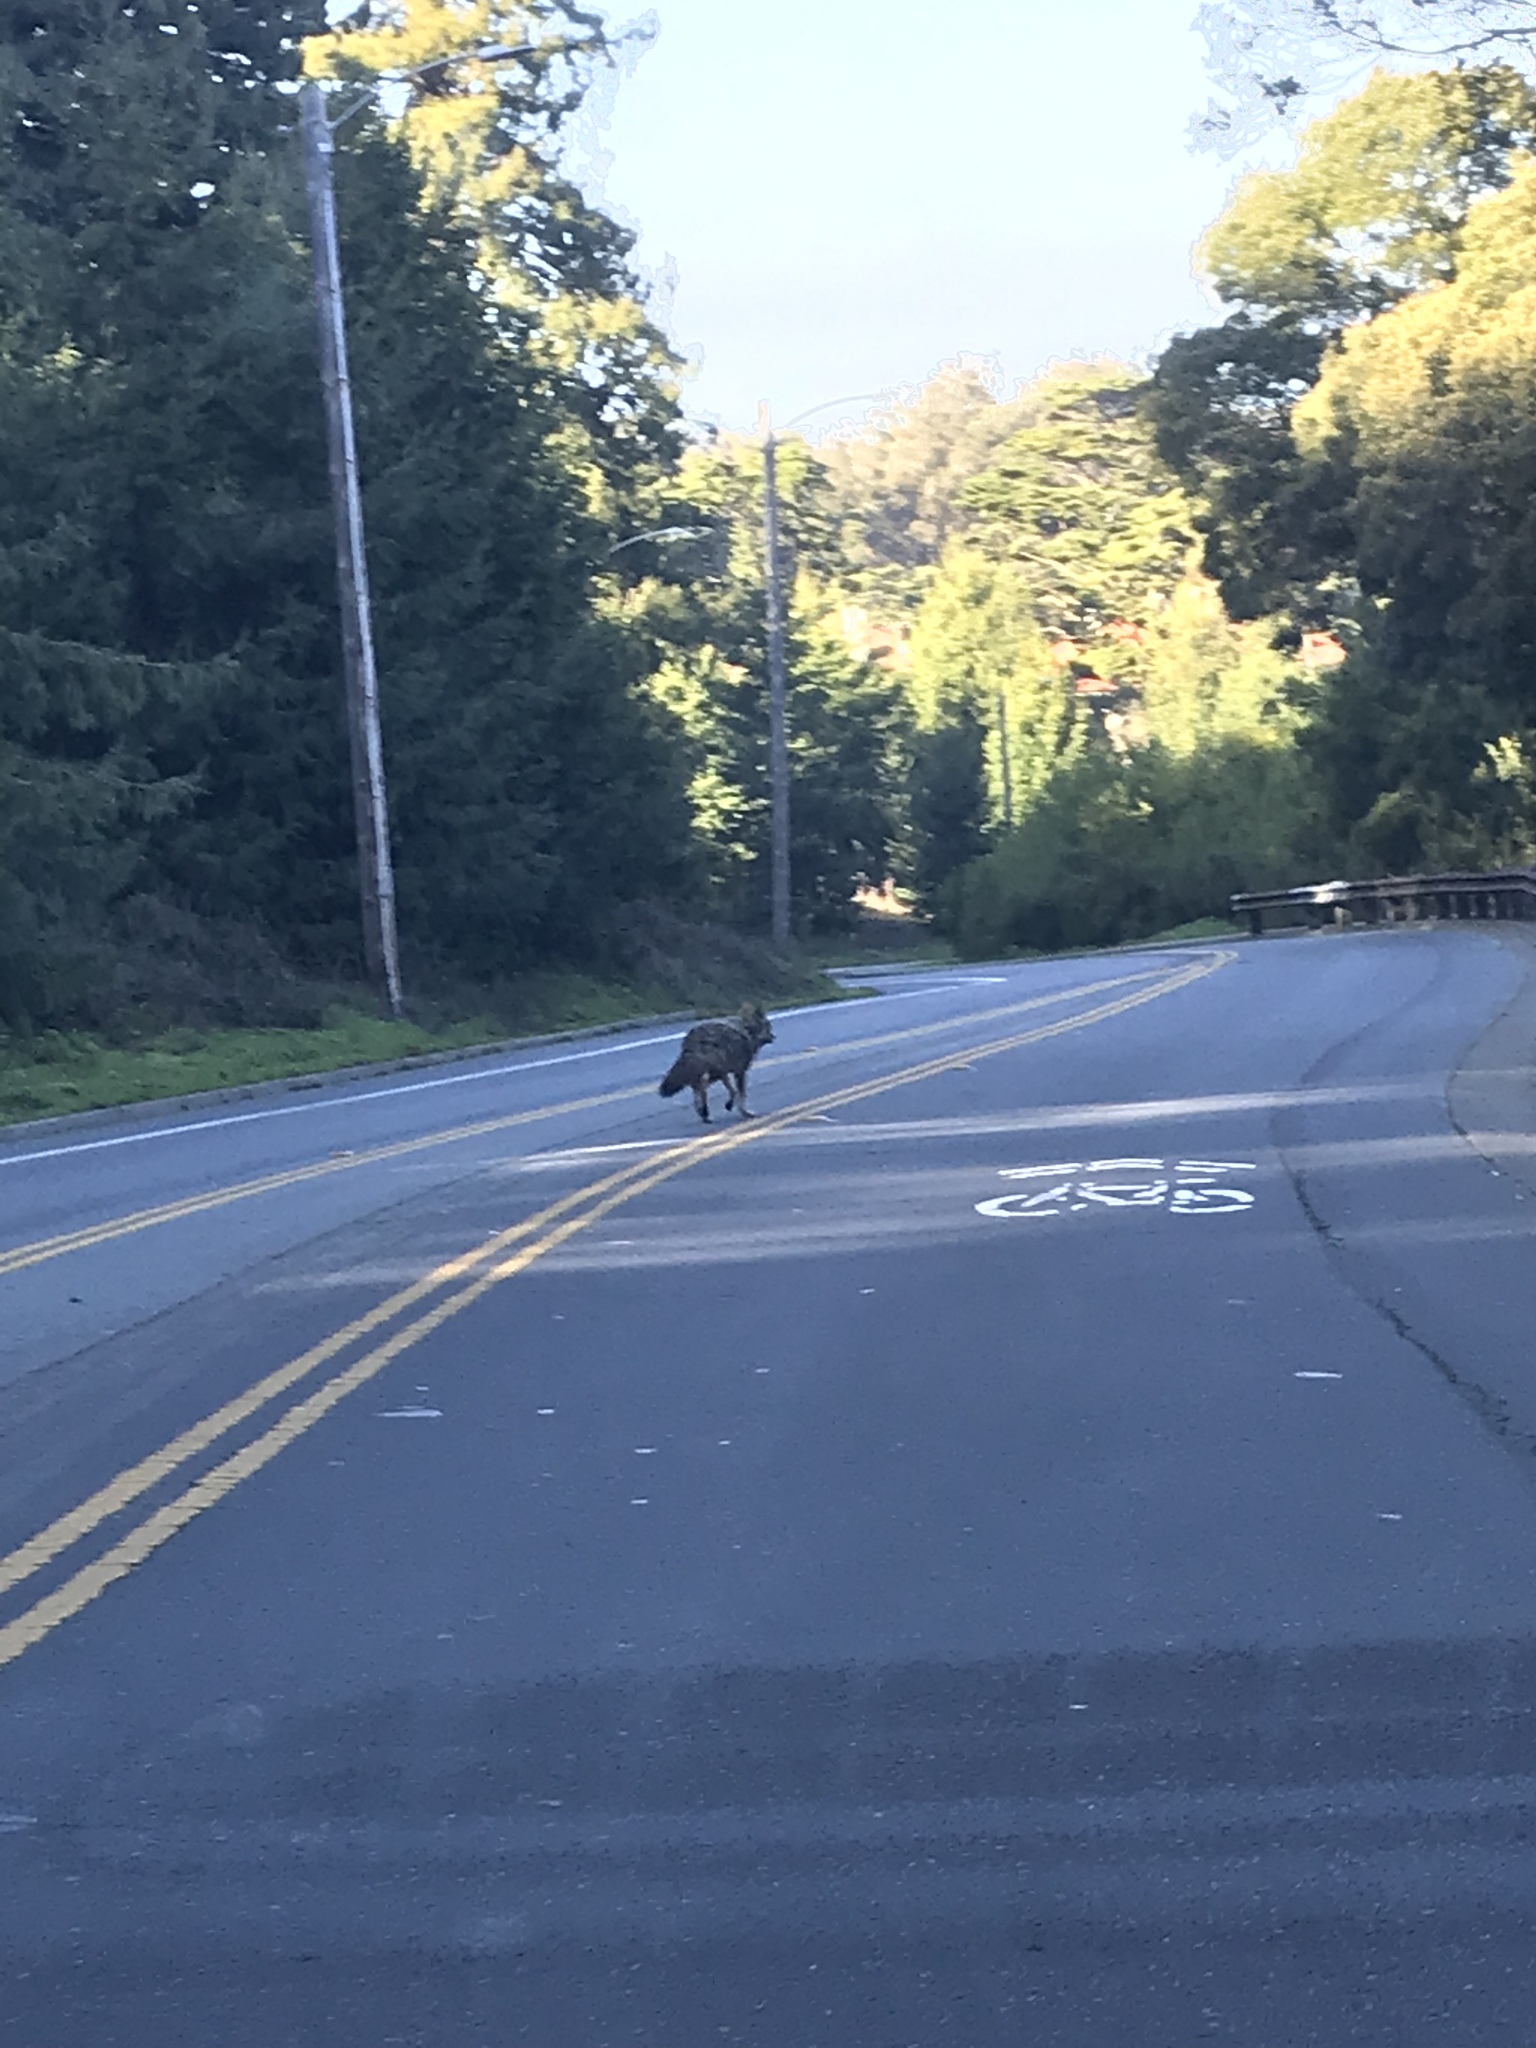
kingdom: Animalia
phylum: Chordata
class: Mammalia
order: Carnivora
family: Canidae
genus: Canis
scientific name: Canis latrans
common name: Coyote
